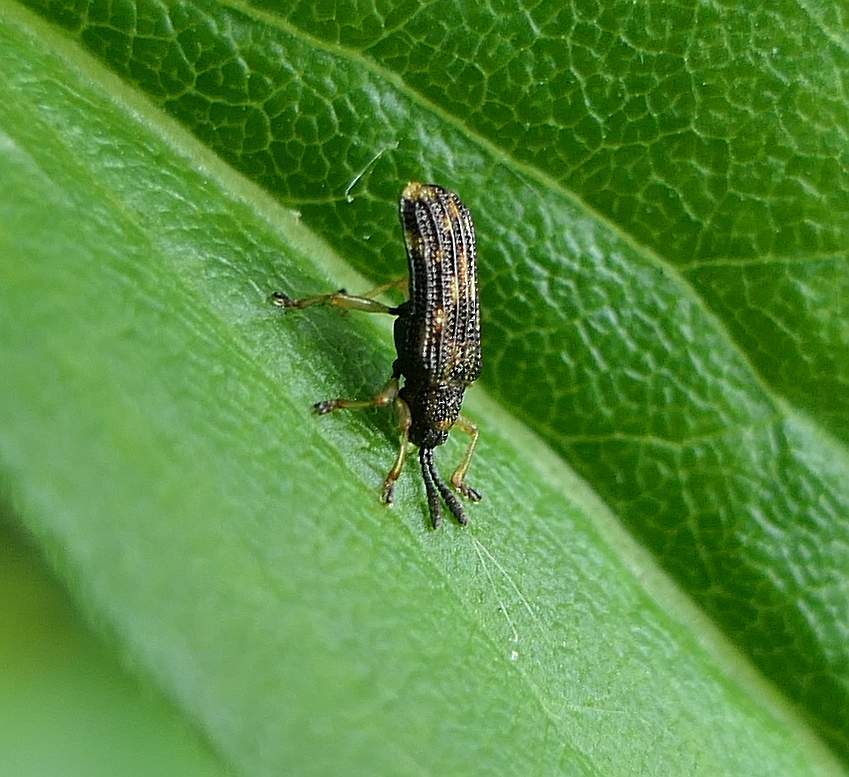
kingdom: Animalia
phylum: Arthropoda
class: Insecta
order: Coleoptera
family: Chrysomelidae
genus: Sumitrosis
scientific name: Sumitrosis inaequalis
